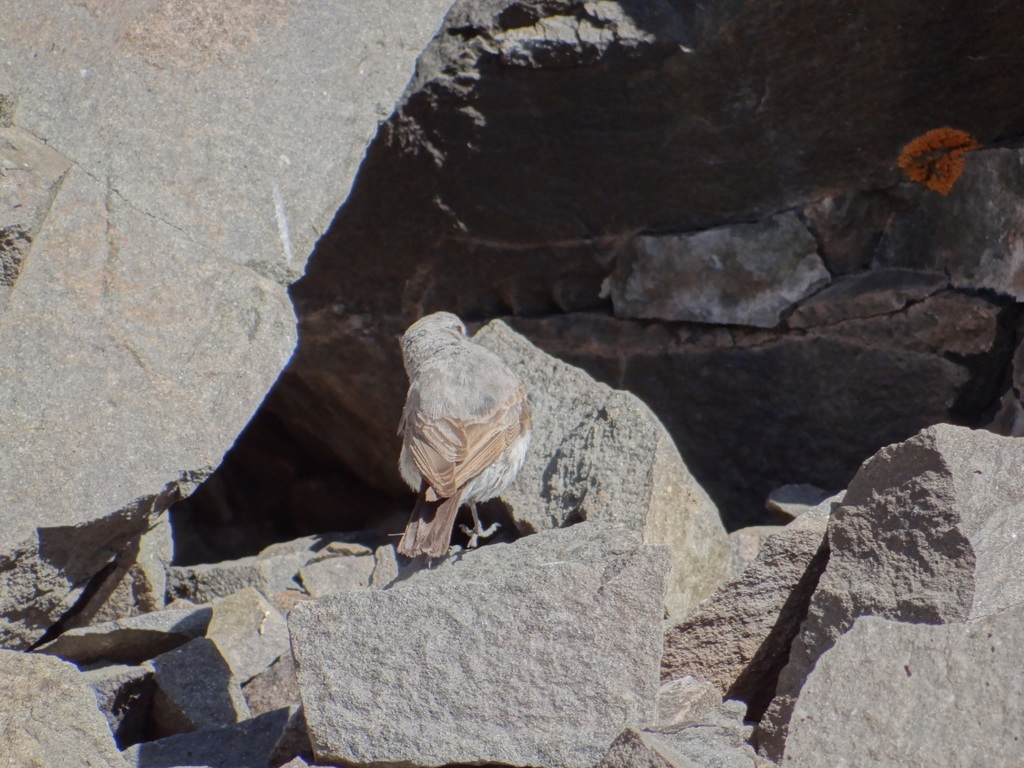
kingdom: Animalia
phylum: Chordata
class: Aves
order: Passeriformes
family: Tyrannidae
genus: Muscisaxicola
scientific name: Muscisaxicola cinereus
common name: Cinereous ground tyrant
